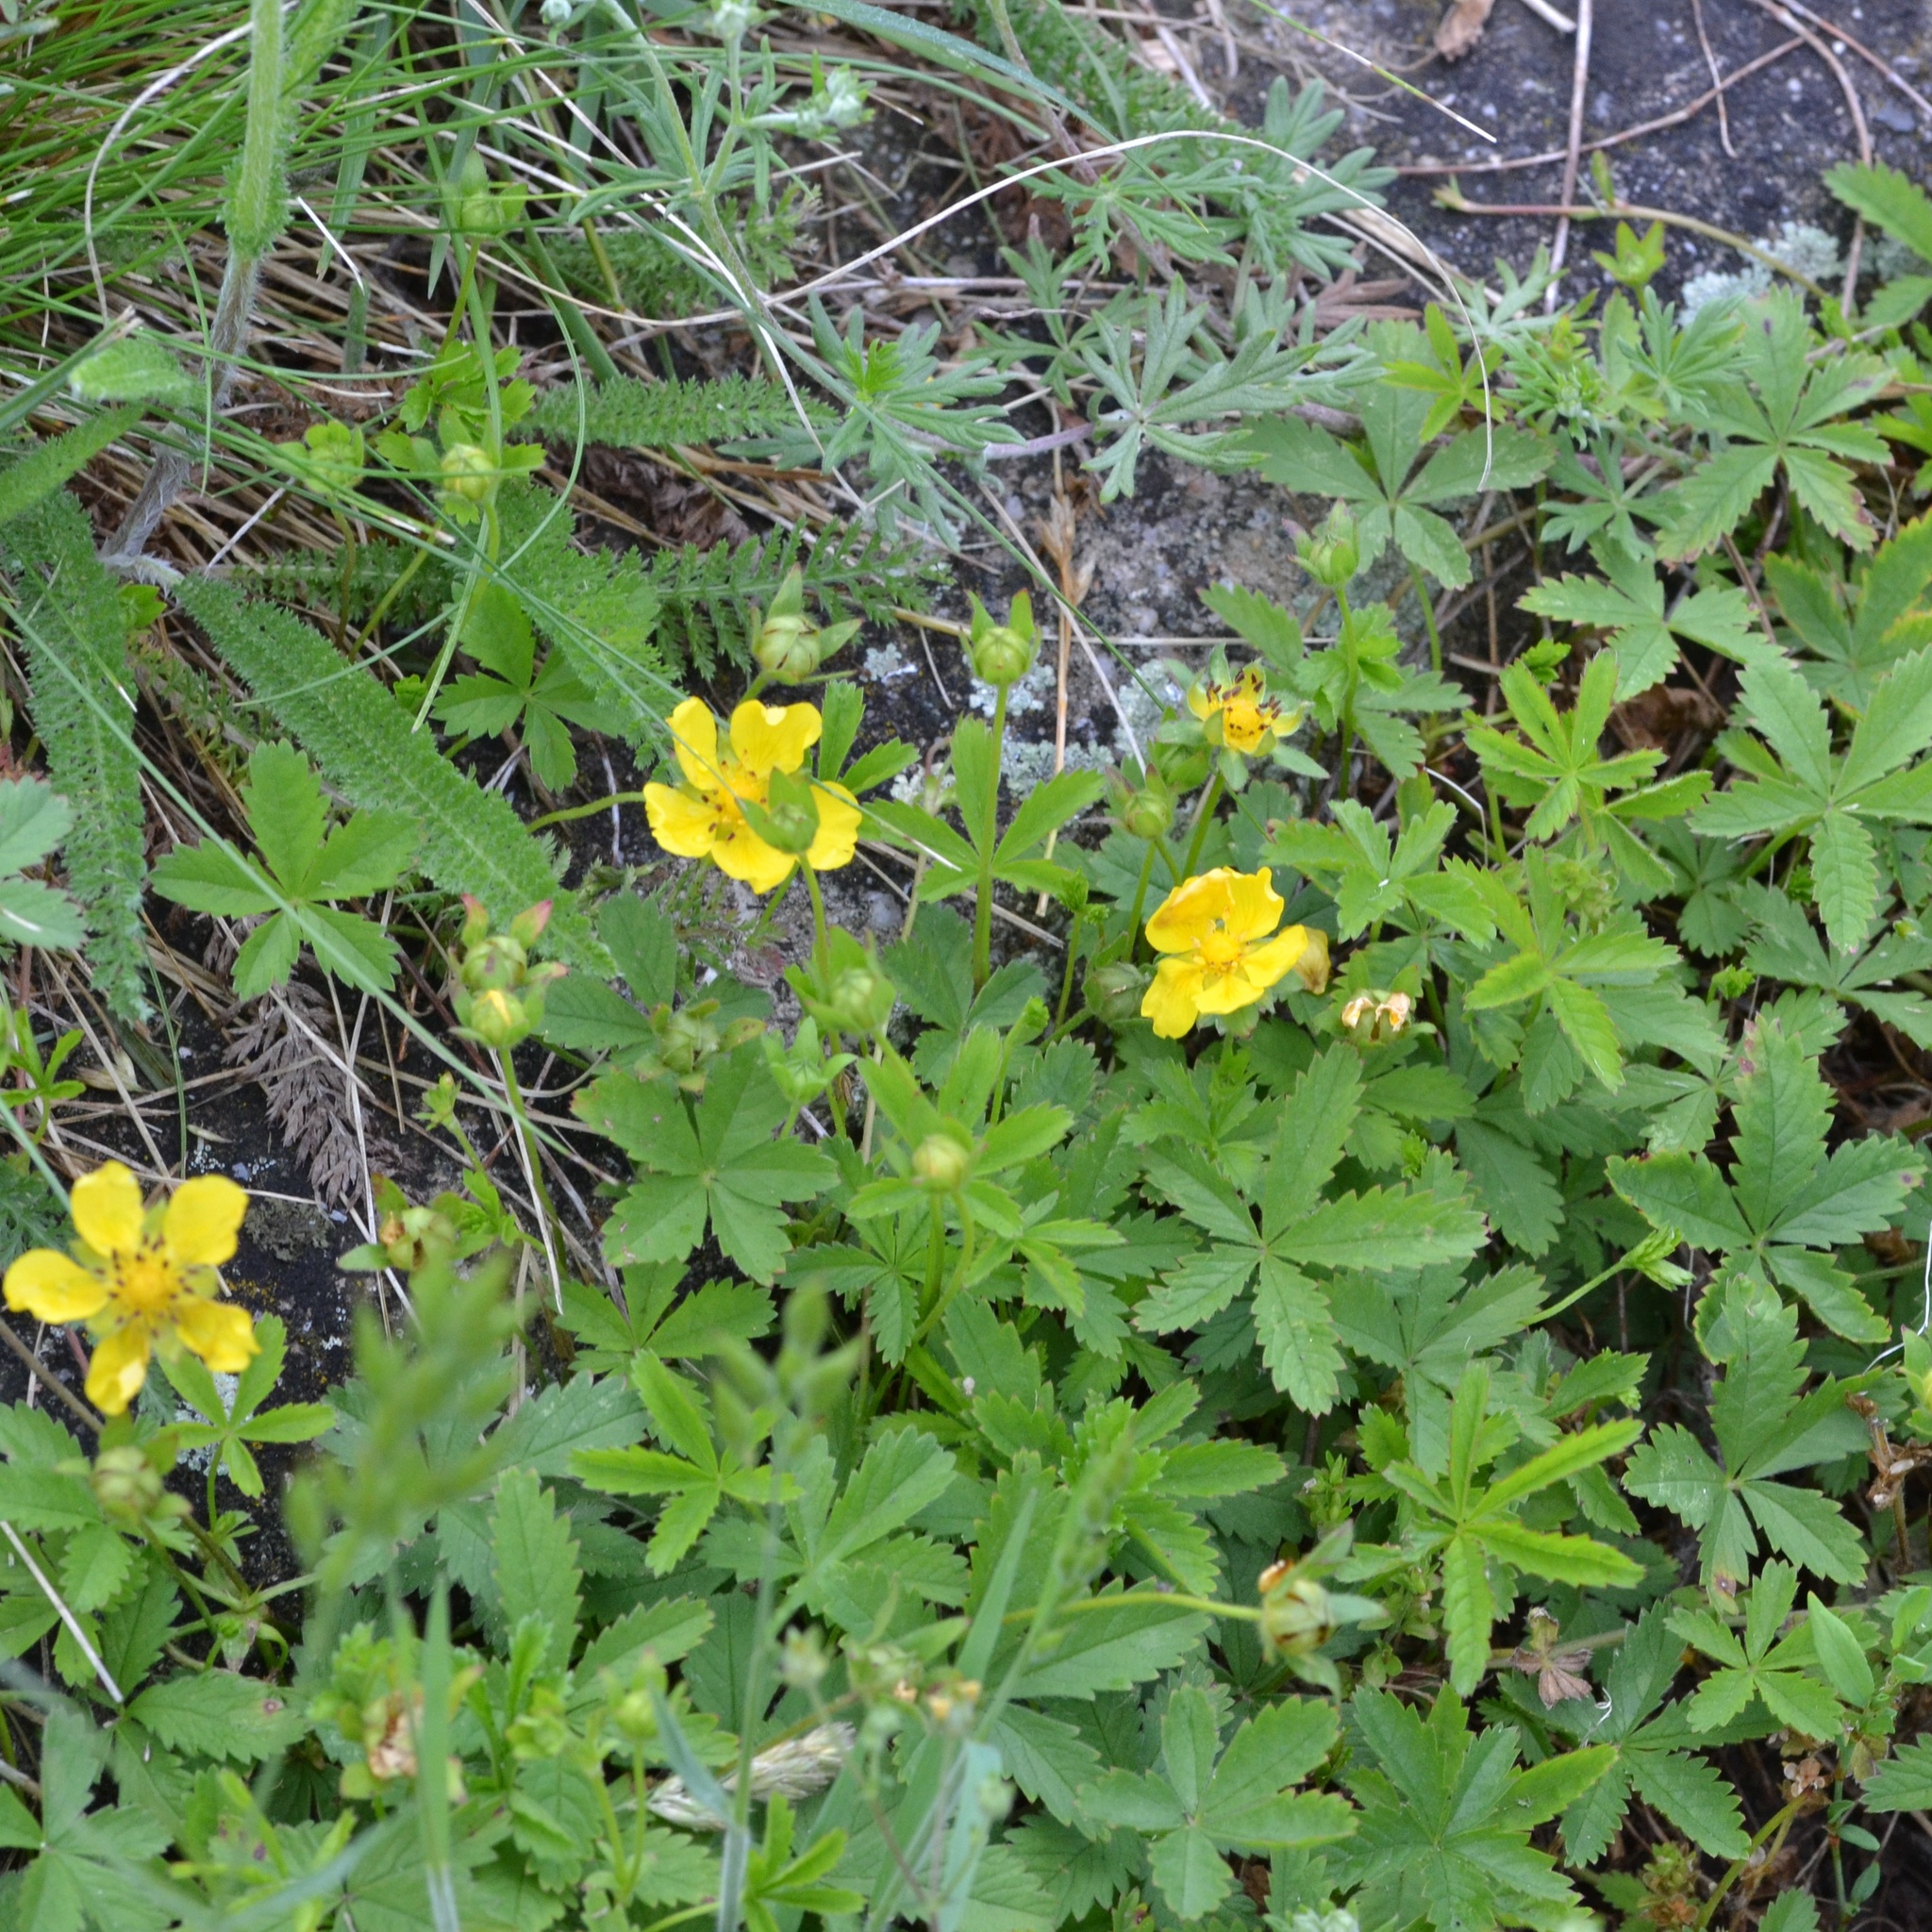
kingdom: Plantae
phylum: Tracheophyta
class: Magnoliopsida
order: Rosales
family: Rosaceae
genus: Potentilla
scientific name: Potentilla reptans
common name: Creeping cinquefoil
